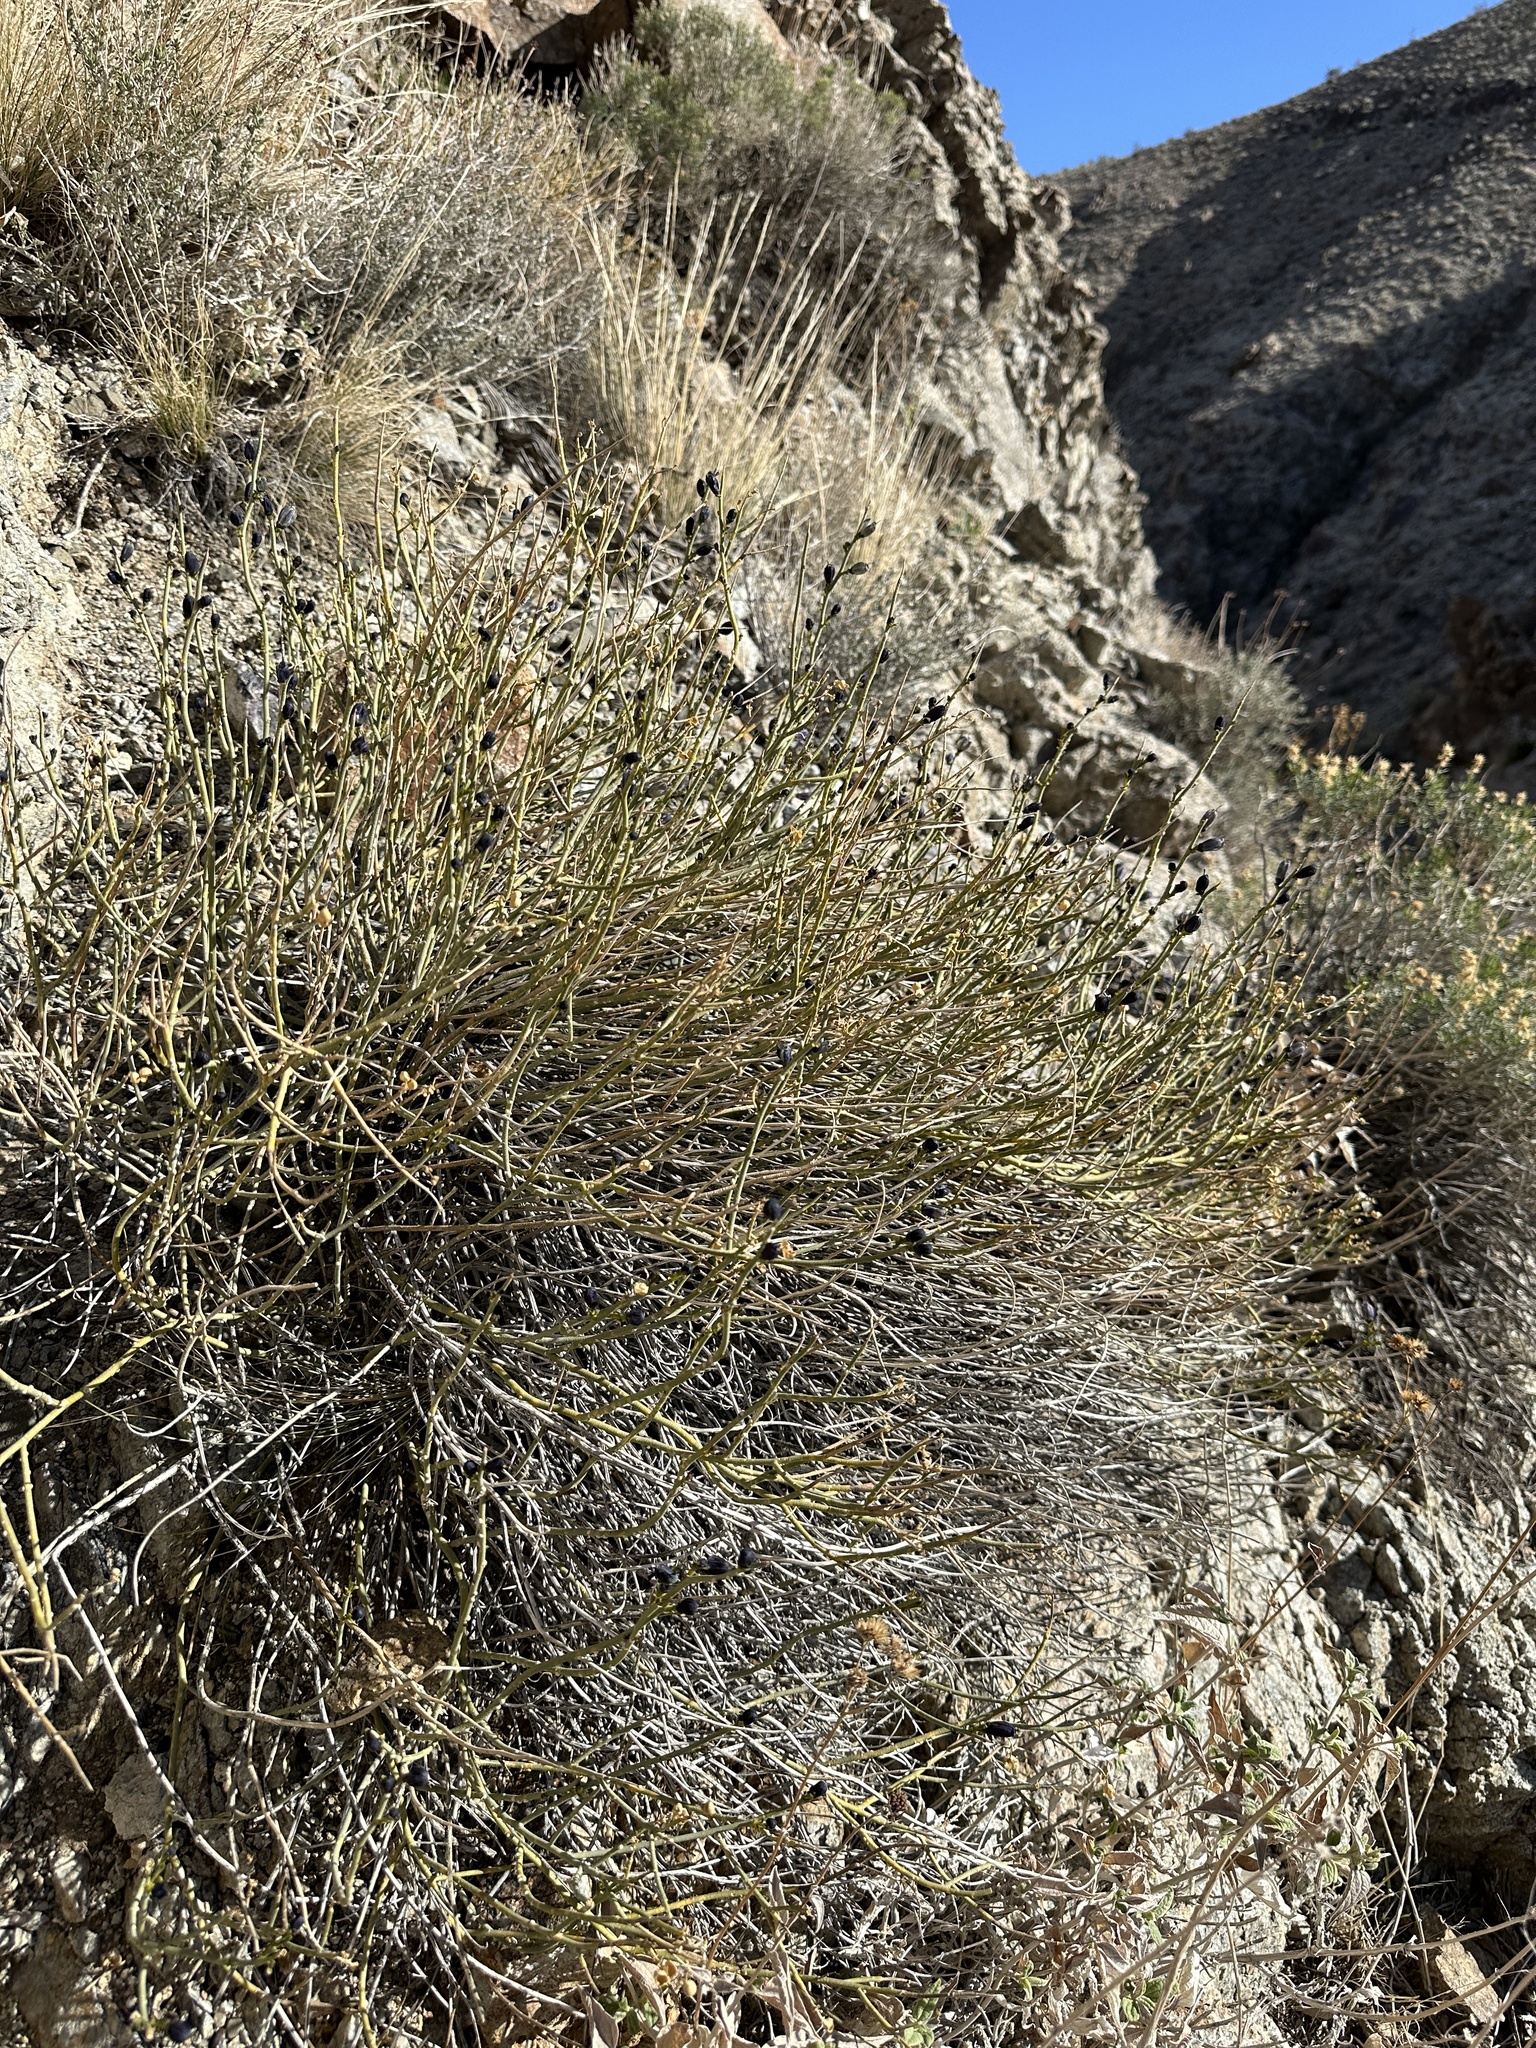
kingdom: Plantae
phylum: Tracheophyta
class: Magnoliopsida
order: Sapindales
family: Rutaceae
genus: Thamnosma
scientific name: Thamnosma montana
